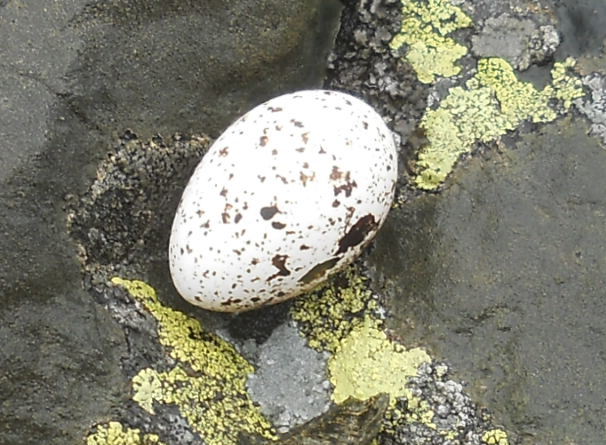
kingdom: Animalia
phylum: Chordata
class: Aves
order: Galliformes
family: Phasianidae
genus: Lagopus
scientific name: Lagopus muta
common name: Rock ptarmigan
